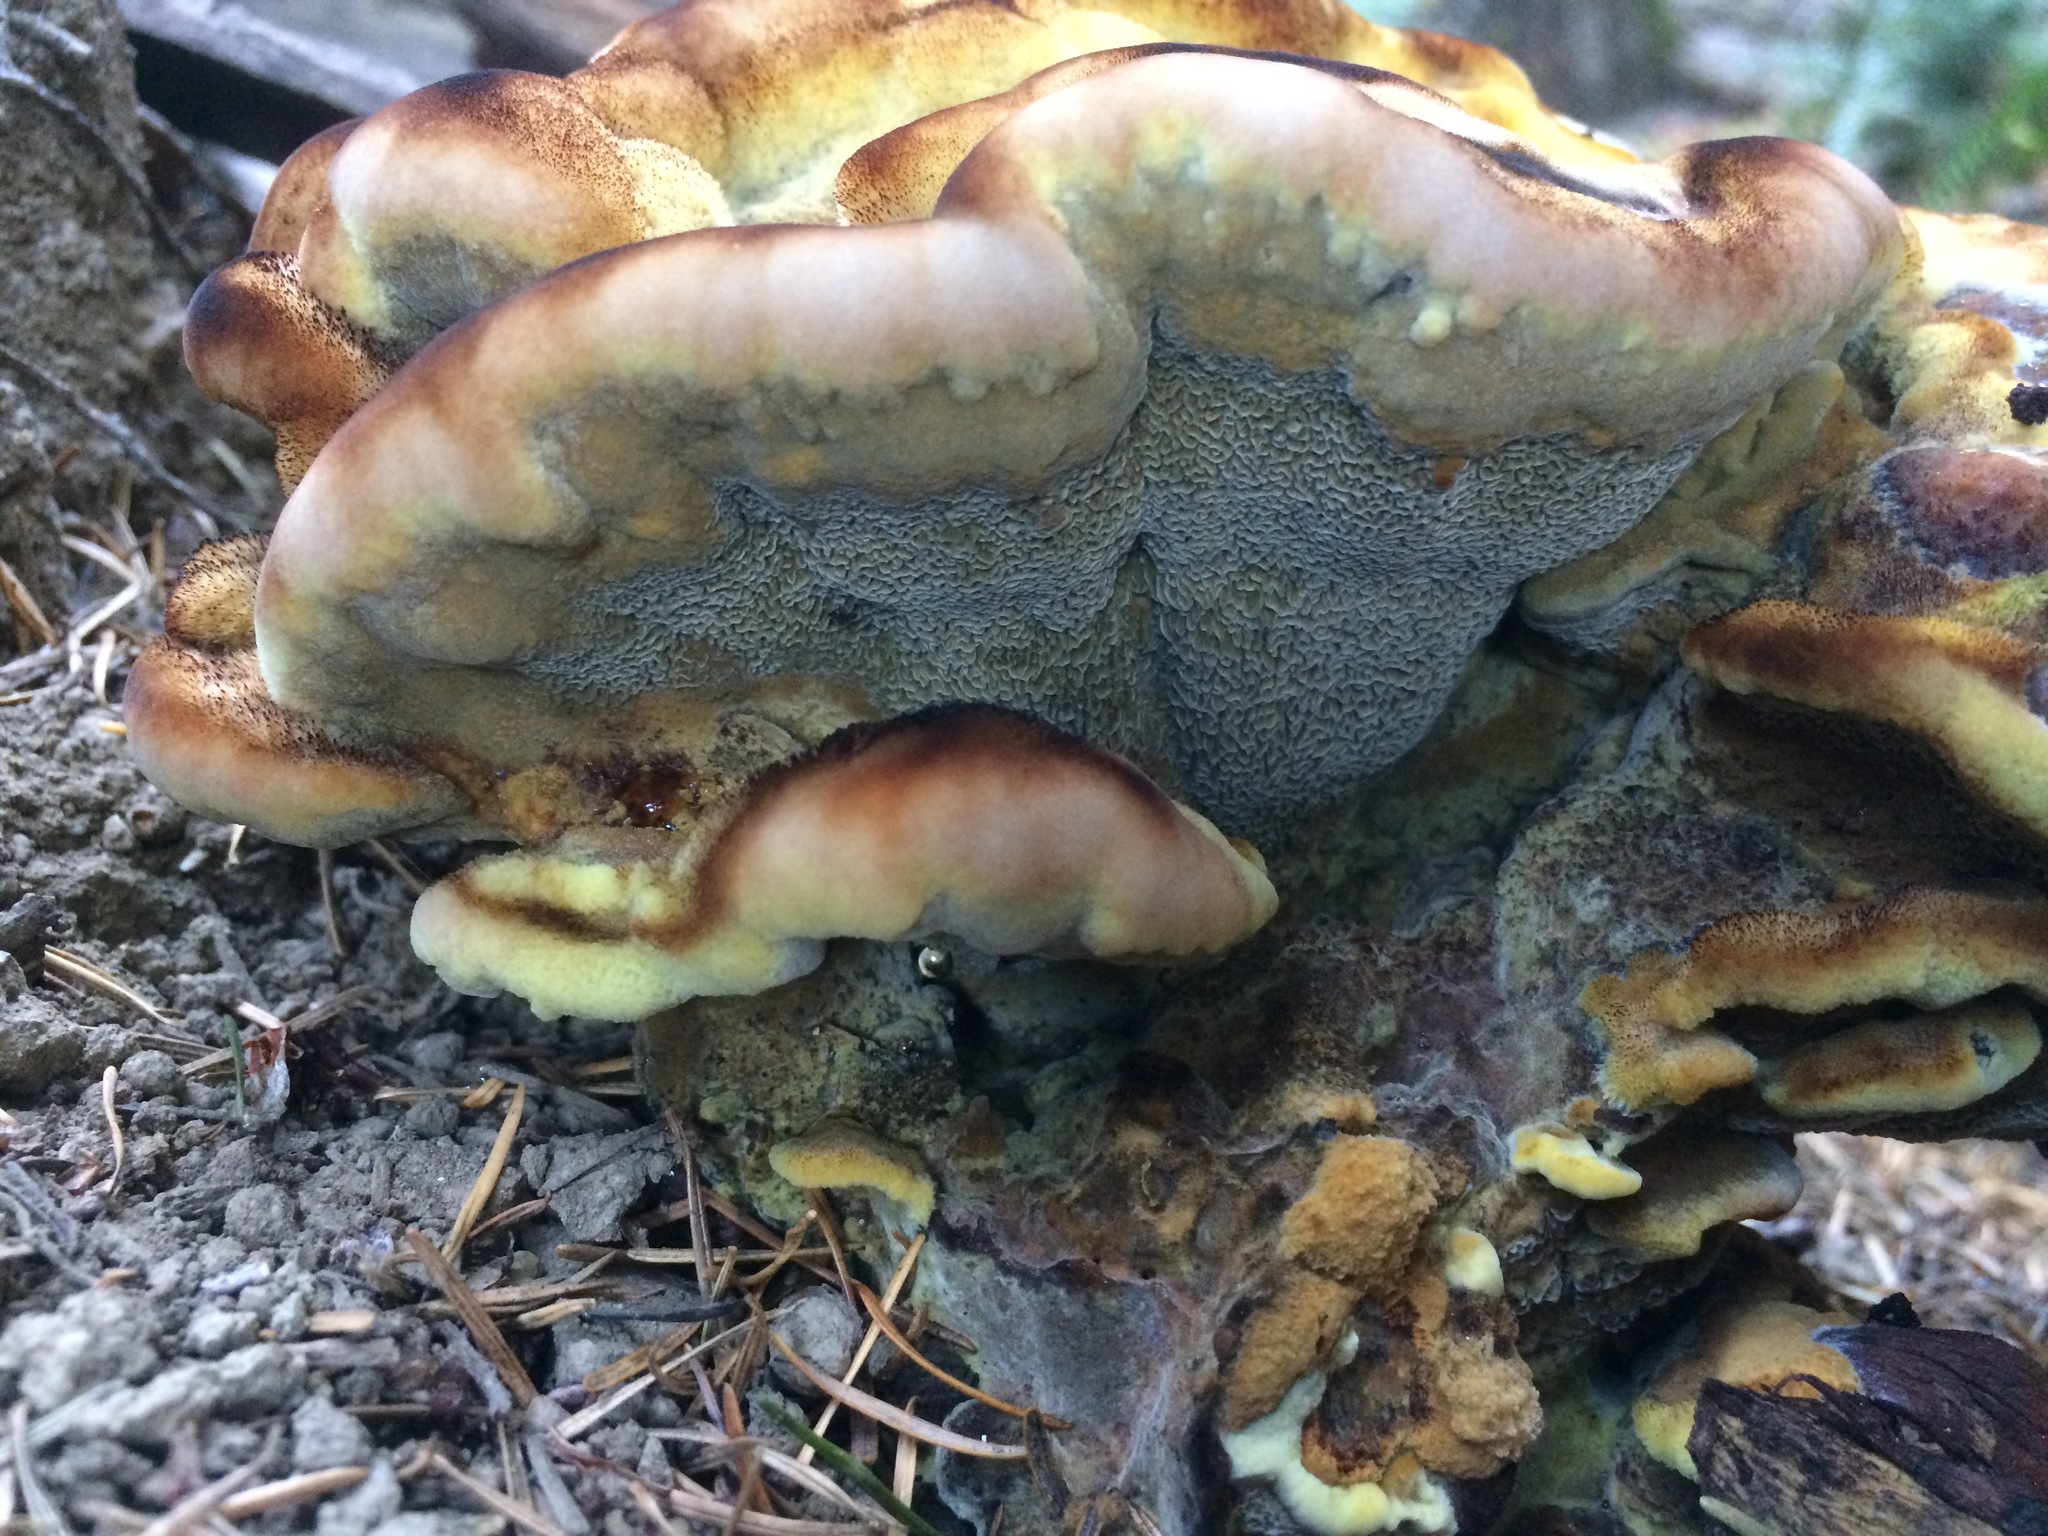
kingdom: Fungi
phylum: Basidiomycota
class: Agaricomycetes
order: Polyporales
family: Laetiporaceae
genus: Phaeolus
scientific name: Phaeolus schweinitzii
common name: Dyer's mazegill
